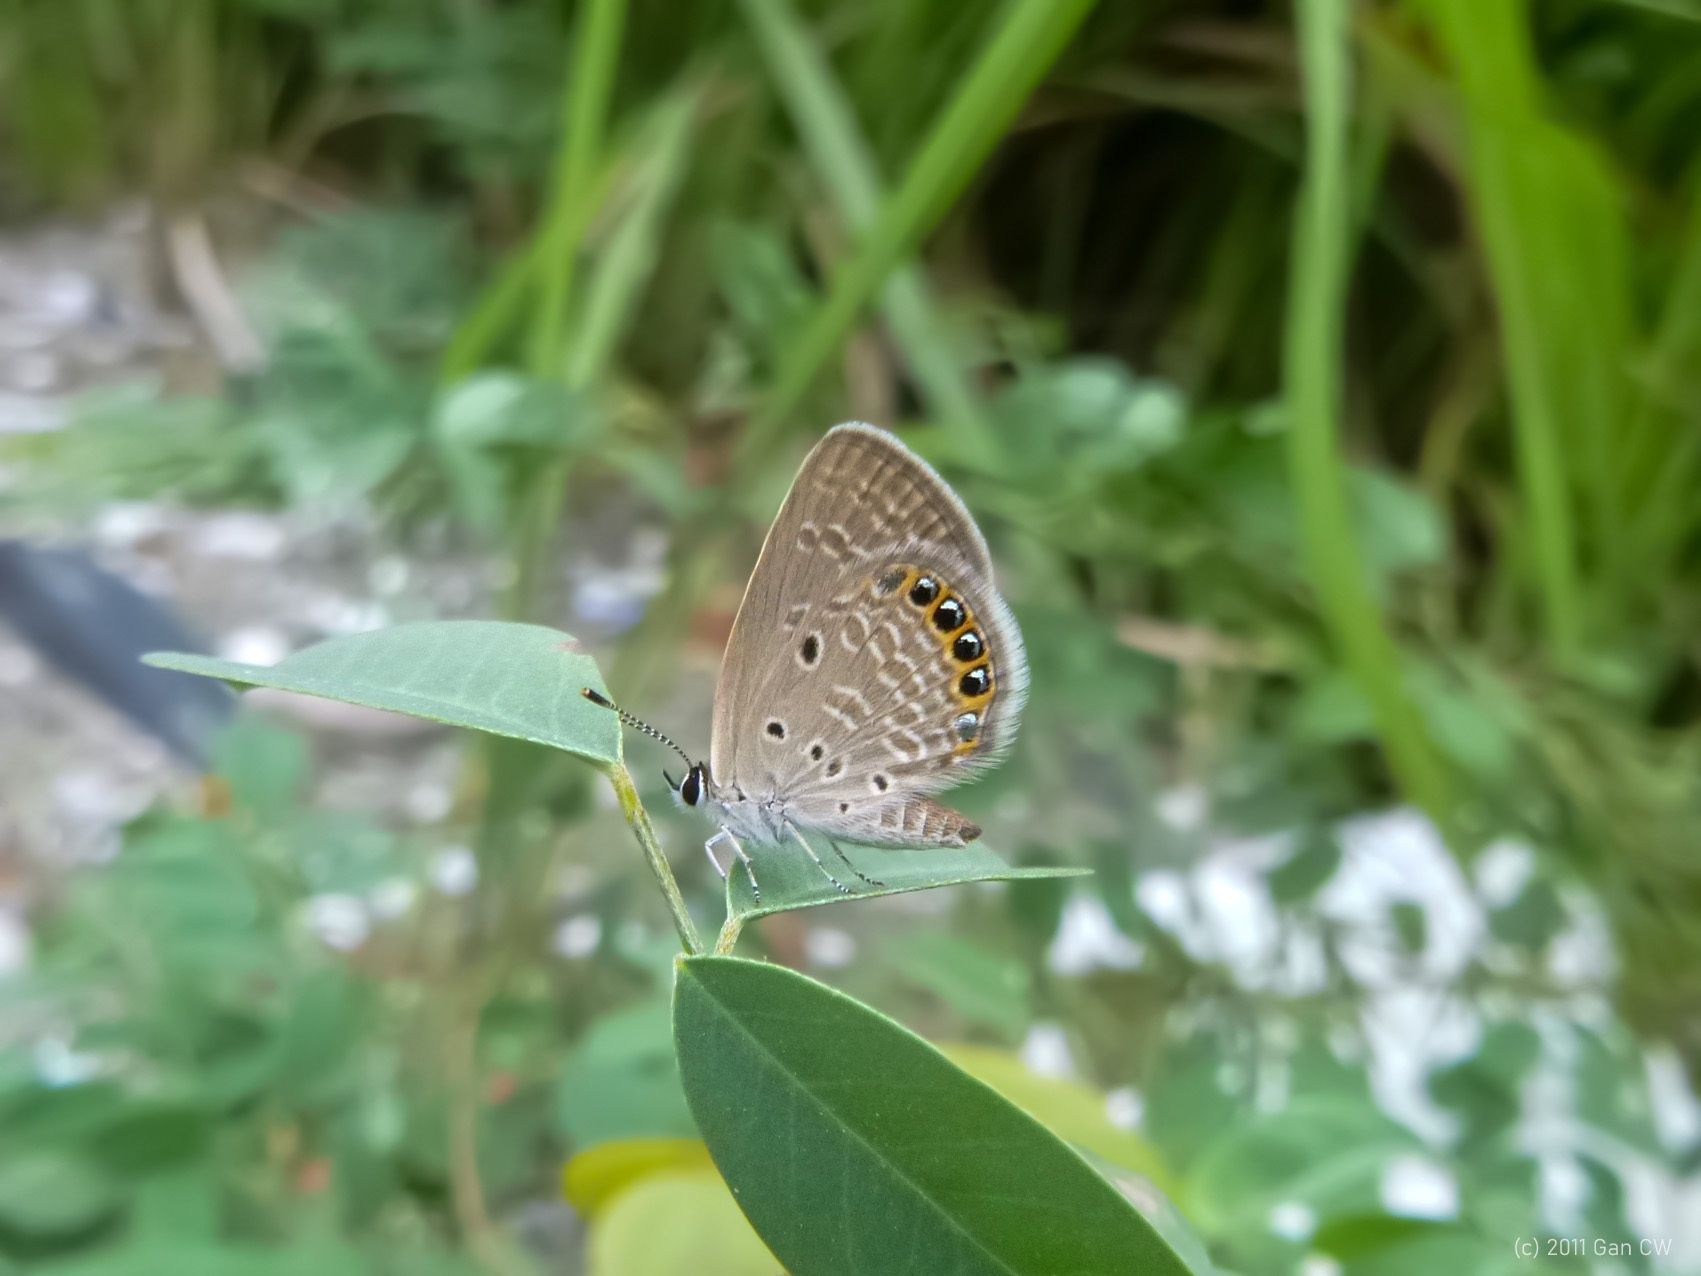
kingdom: Animalia
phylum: Arthropoda
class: Insecta
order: Lepidoptera
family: Lycaenidae
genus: Freyeria
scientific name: Freyeria putli
